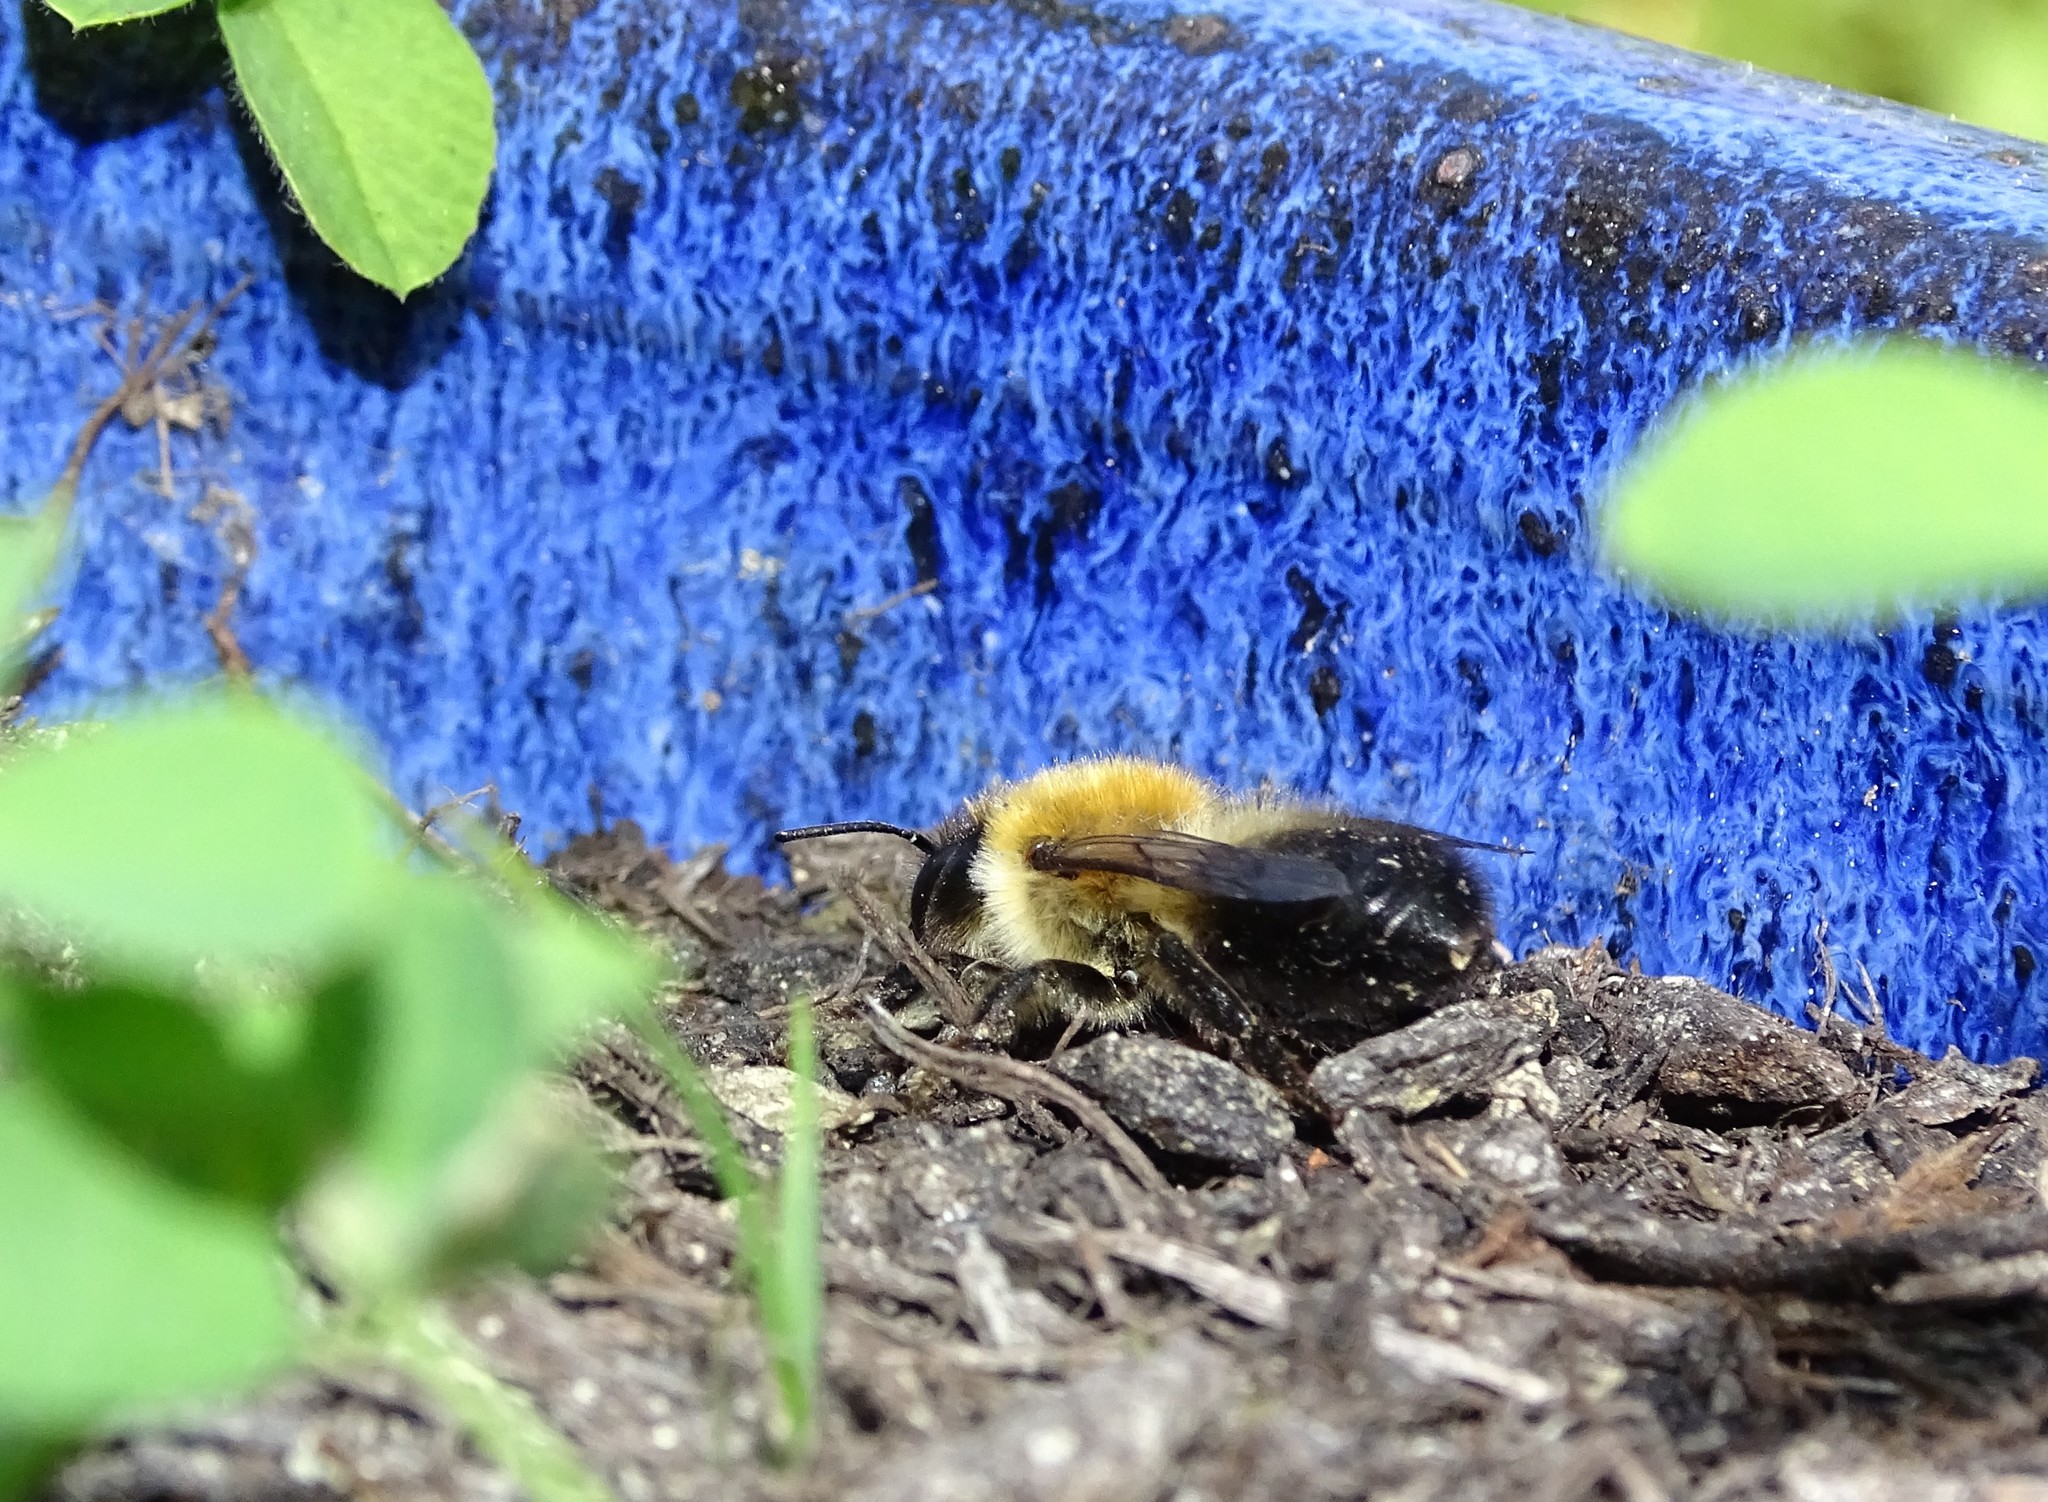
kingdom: Animalia
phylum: Arthropoda
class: Insecta
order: Hymenoptera
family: Megachilidae
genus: Megachile
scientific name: Megachile nigriventris
